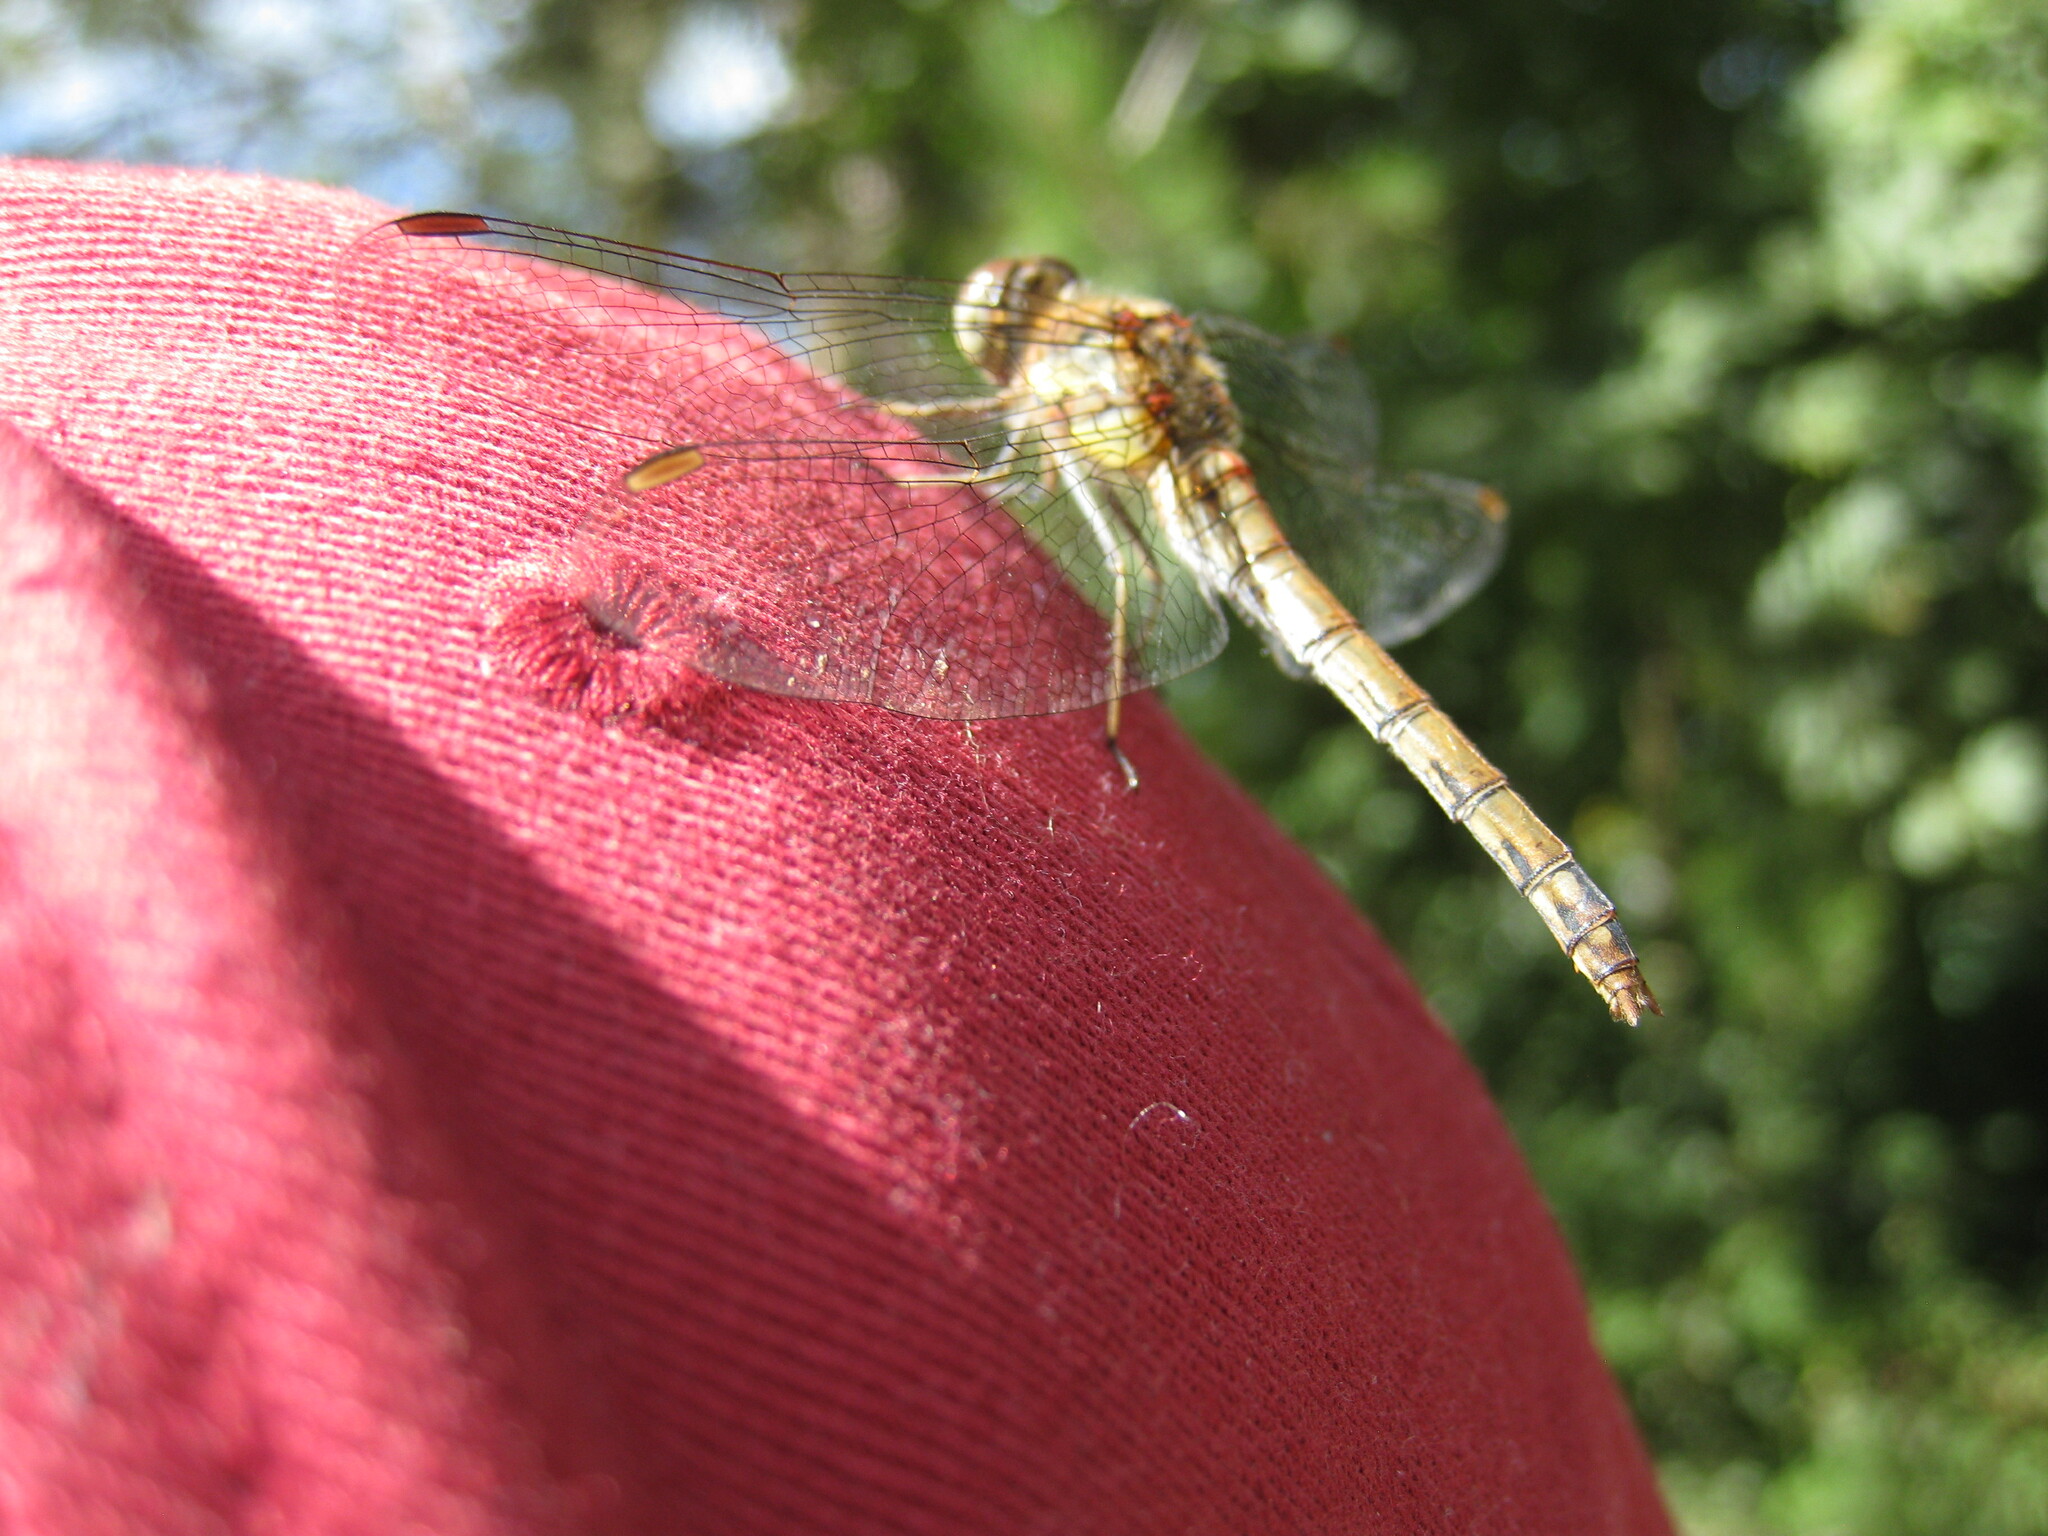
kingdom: Animalia
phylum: Arthropoda
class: Insecta
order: Odonata
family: Libellulidae
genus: Sympetrum
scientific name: Sympetrum striolatum
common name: Common darter
